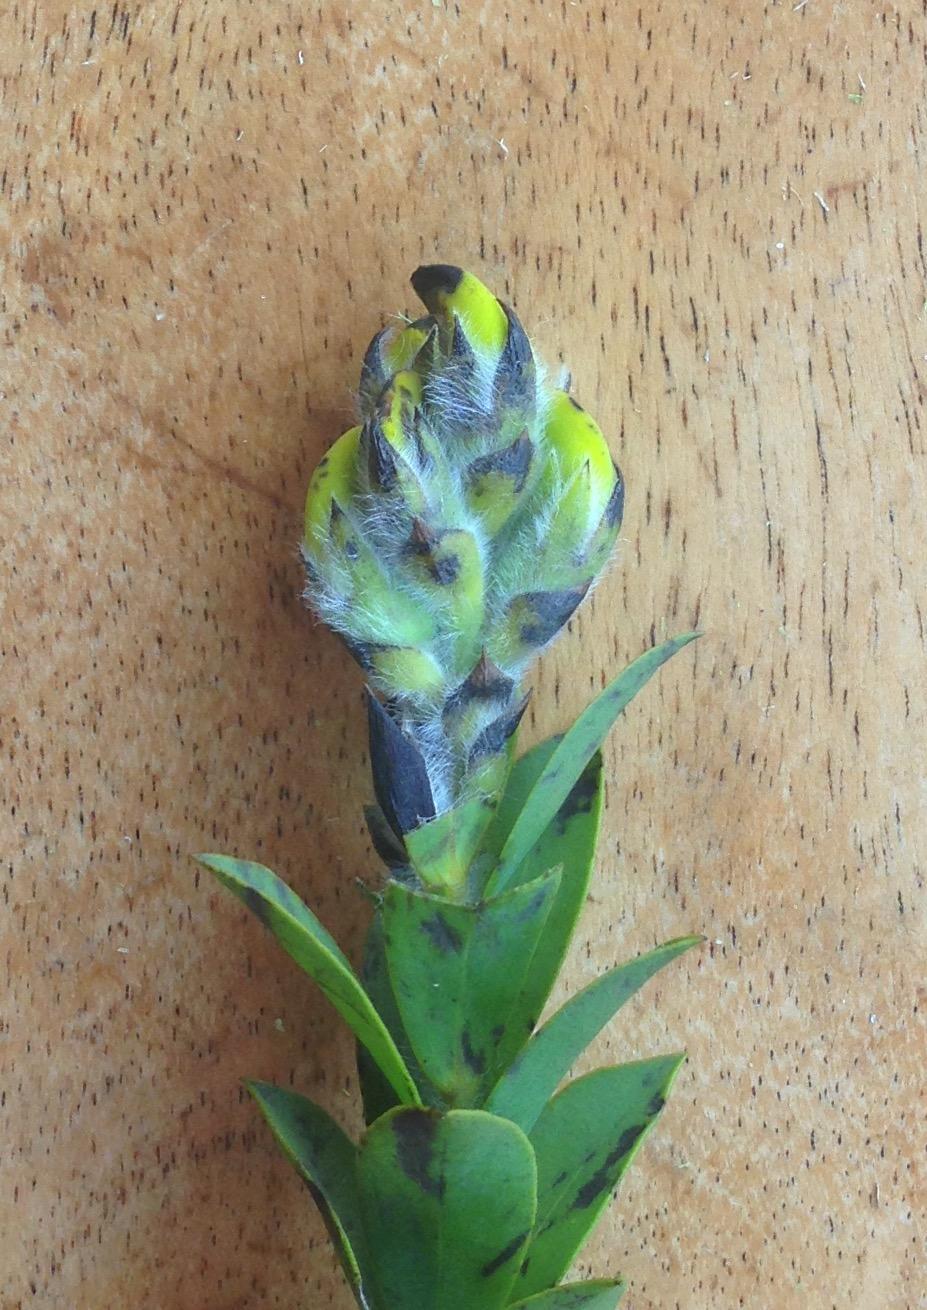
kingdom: Plantae
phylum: Tracheophyta
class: Magnoliopsida
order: Fabales
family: Fabaceae
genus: Liparia
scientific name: Liparia hirsuta
